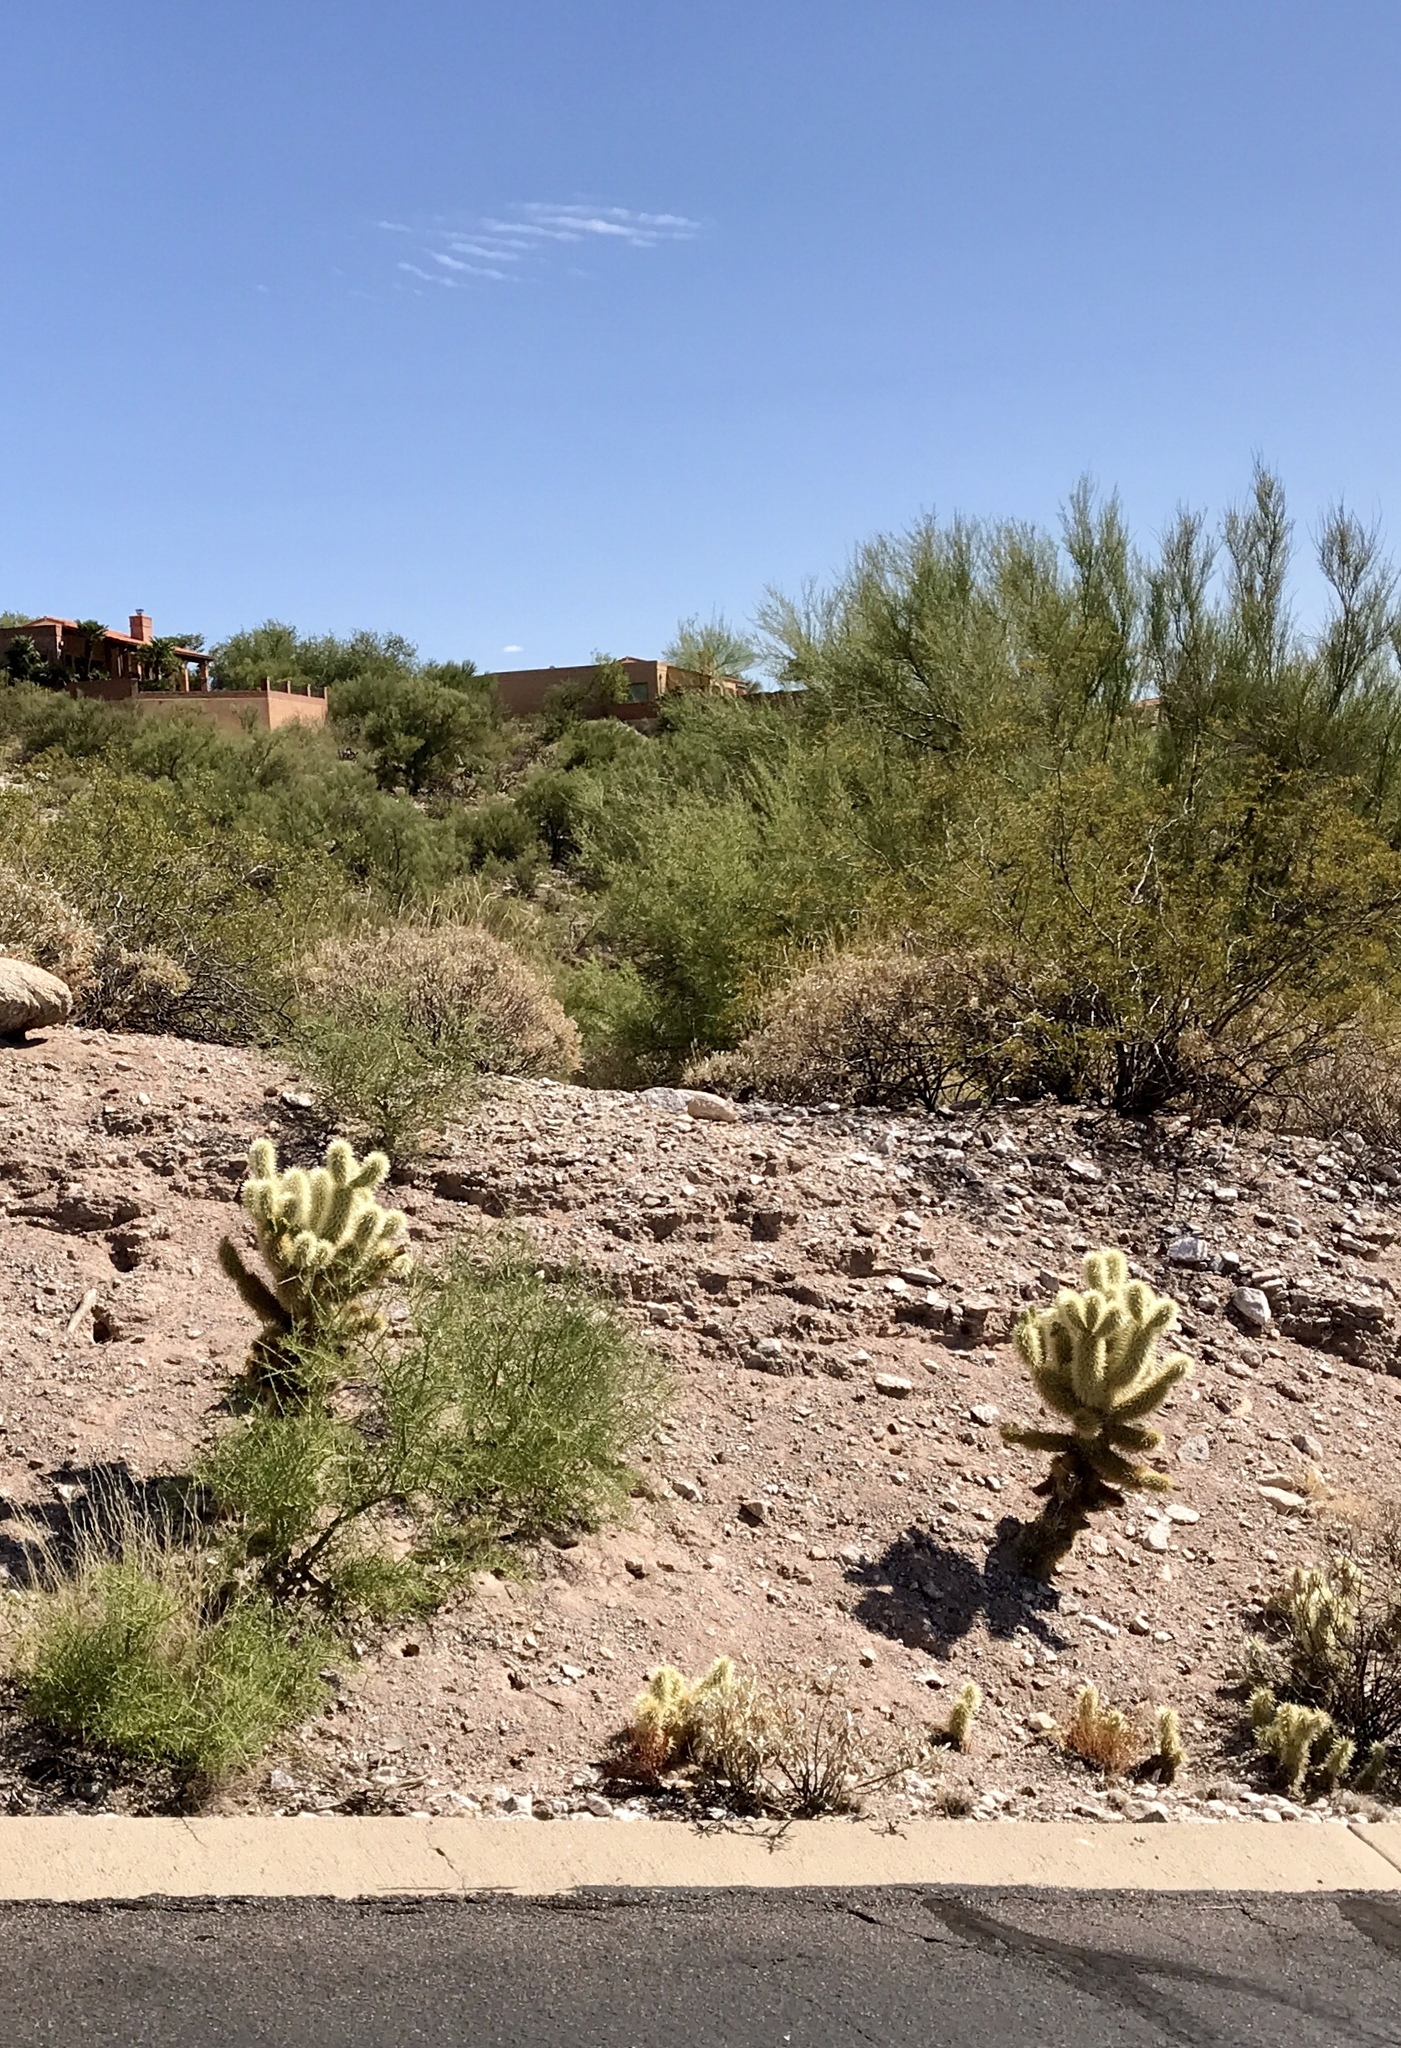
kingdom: Plantae
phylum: Tracheophyta
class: Magnoliopsida
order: Caryophyllales
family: Cactaceae
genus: Cylindropuntia
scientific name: Cylindropuntia fosbergii
